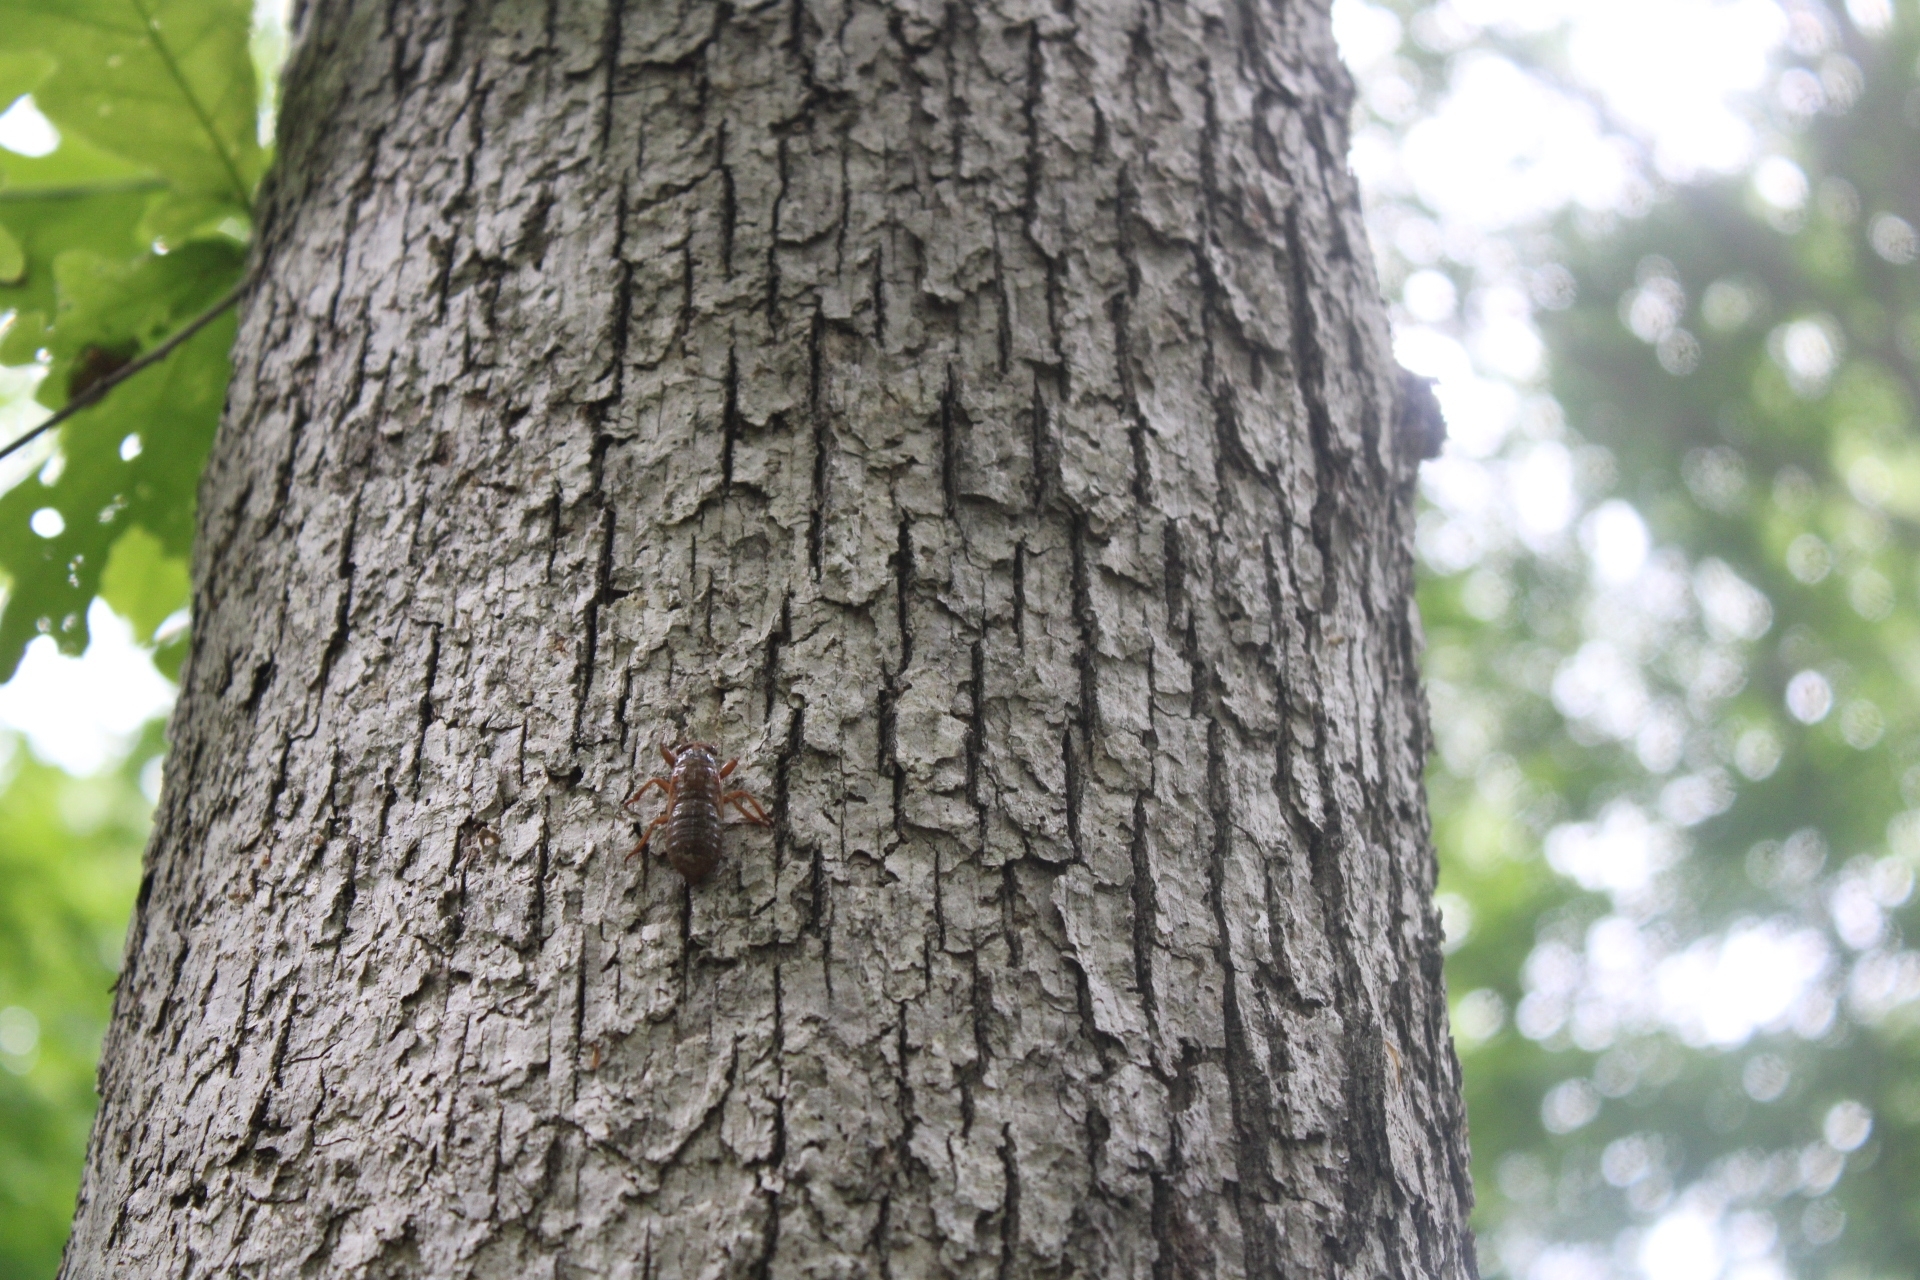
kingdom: Animalia
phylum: Arthropoda
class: Insecta
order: Hemiptera
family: Cicadidae
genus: Magicicada
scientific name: Magicicada
